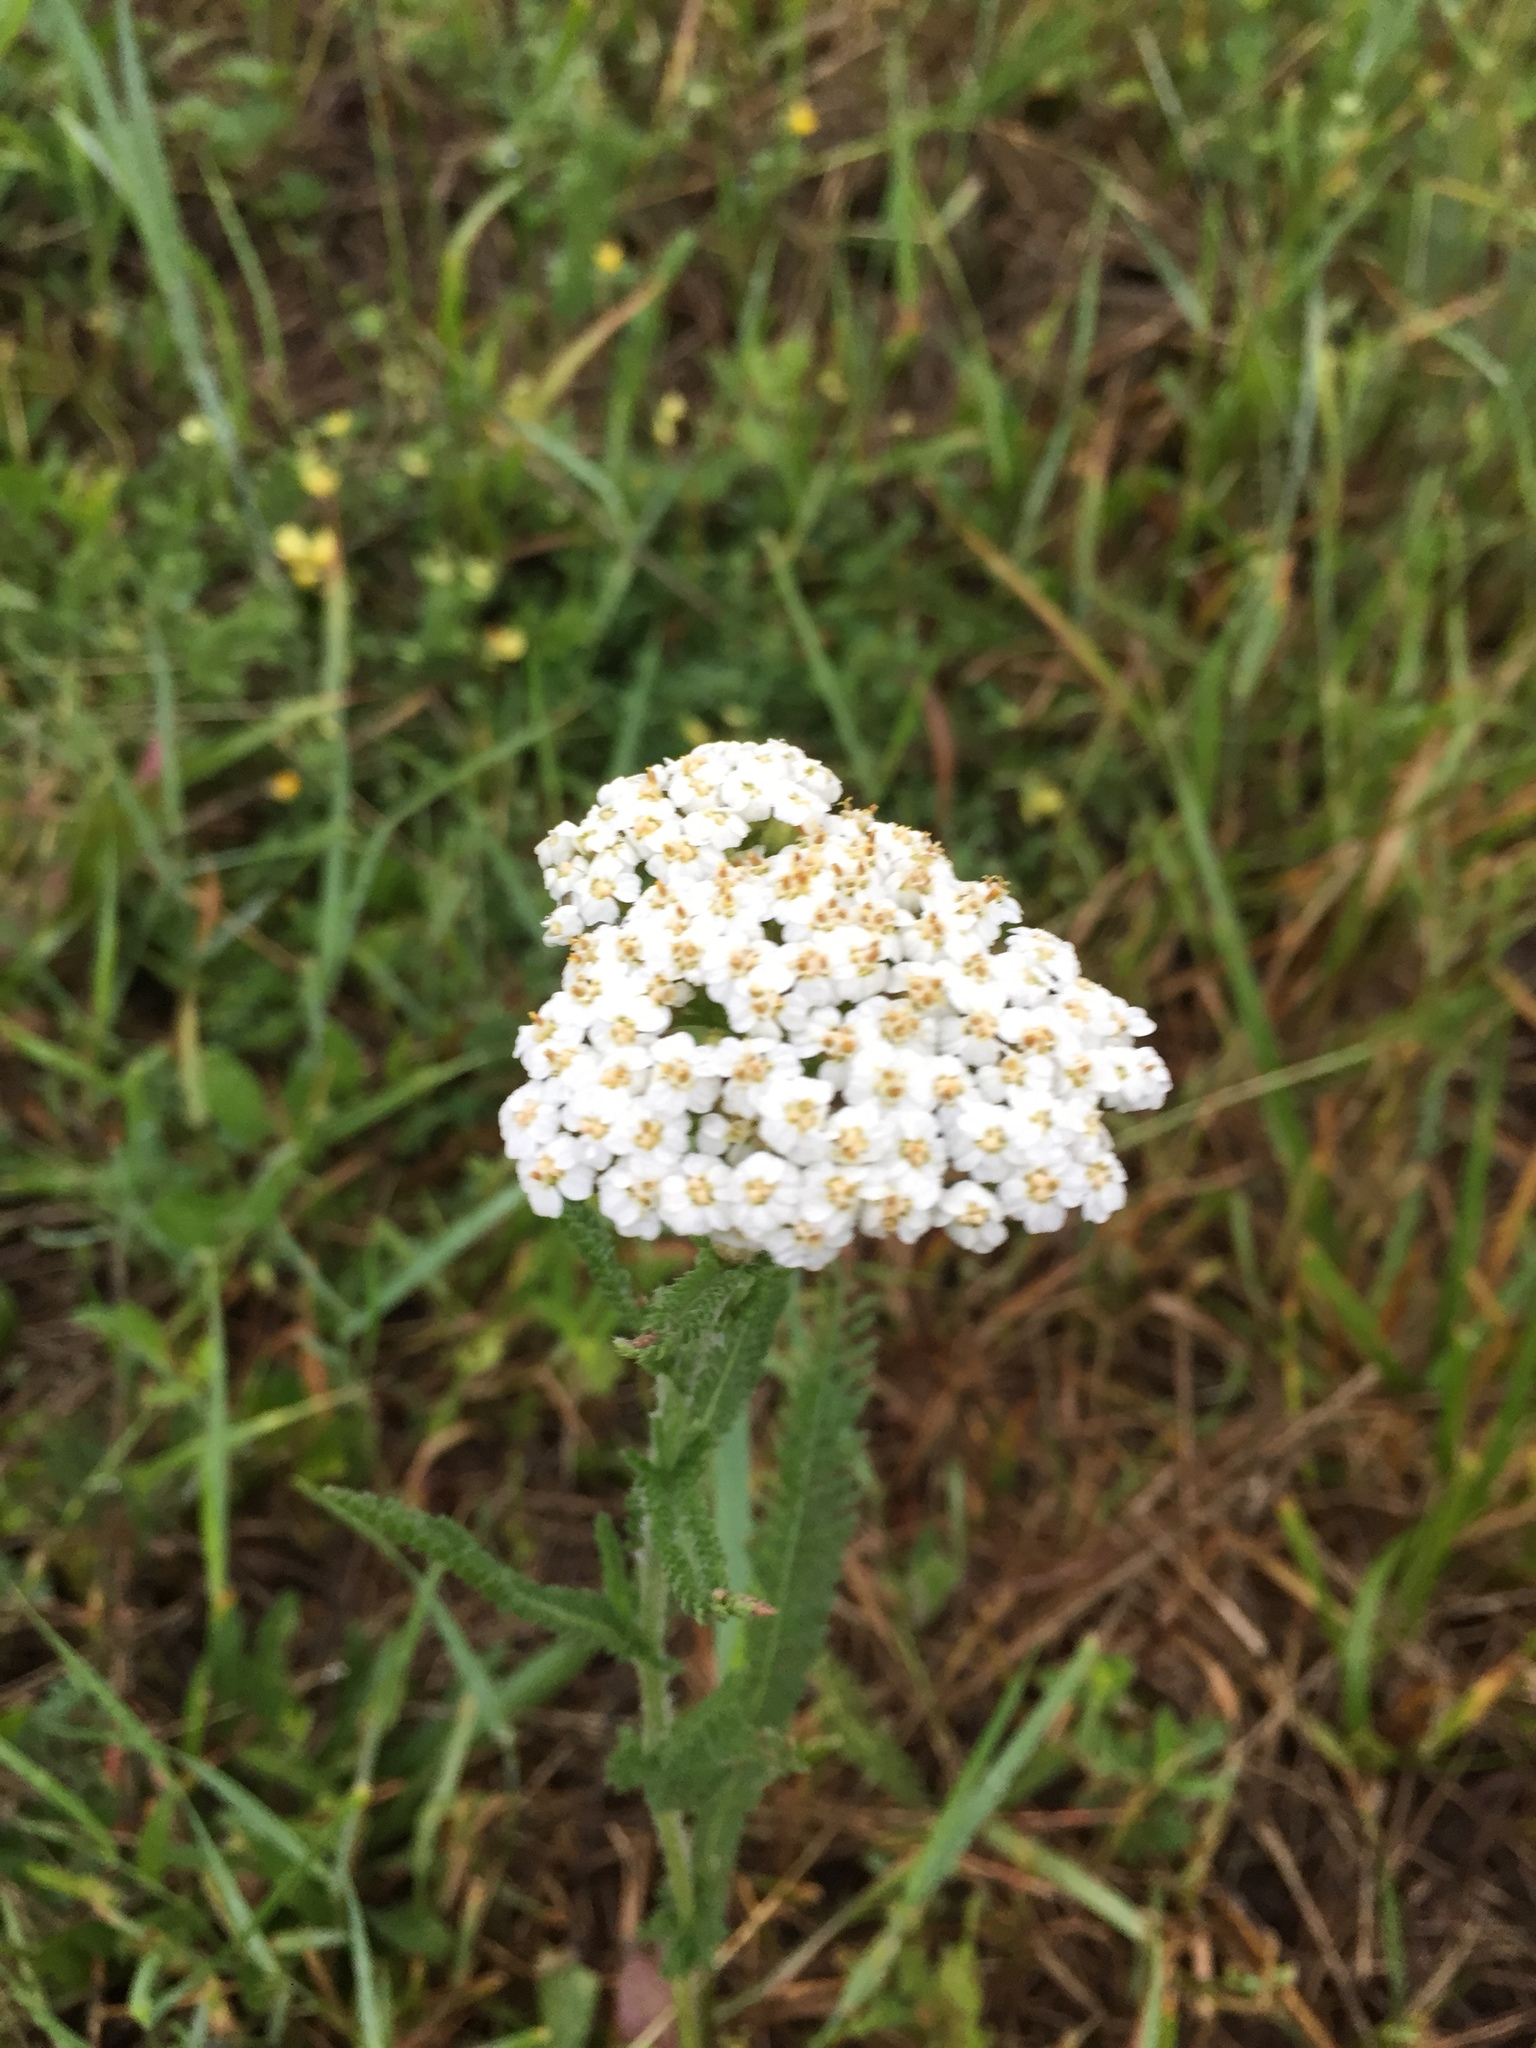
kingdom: Plantae
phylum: Tracheophyta
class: Magnoliopsida
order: Asterales
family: Asteraceae
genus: Achillea
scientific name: Achillea millefolium
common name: Yarrow
